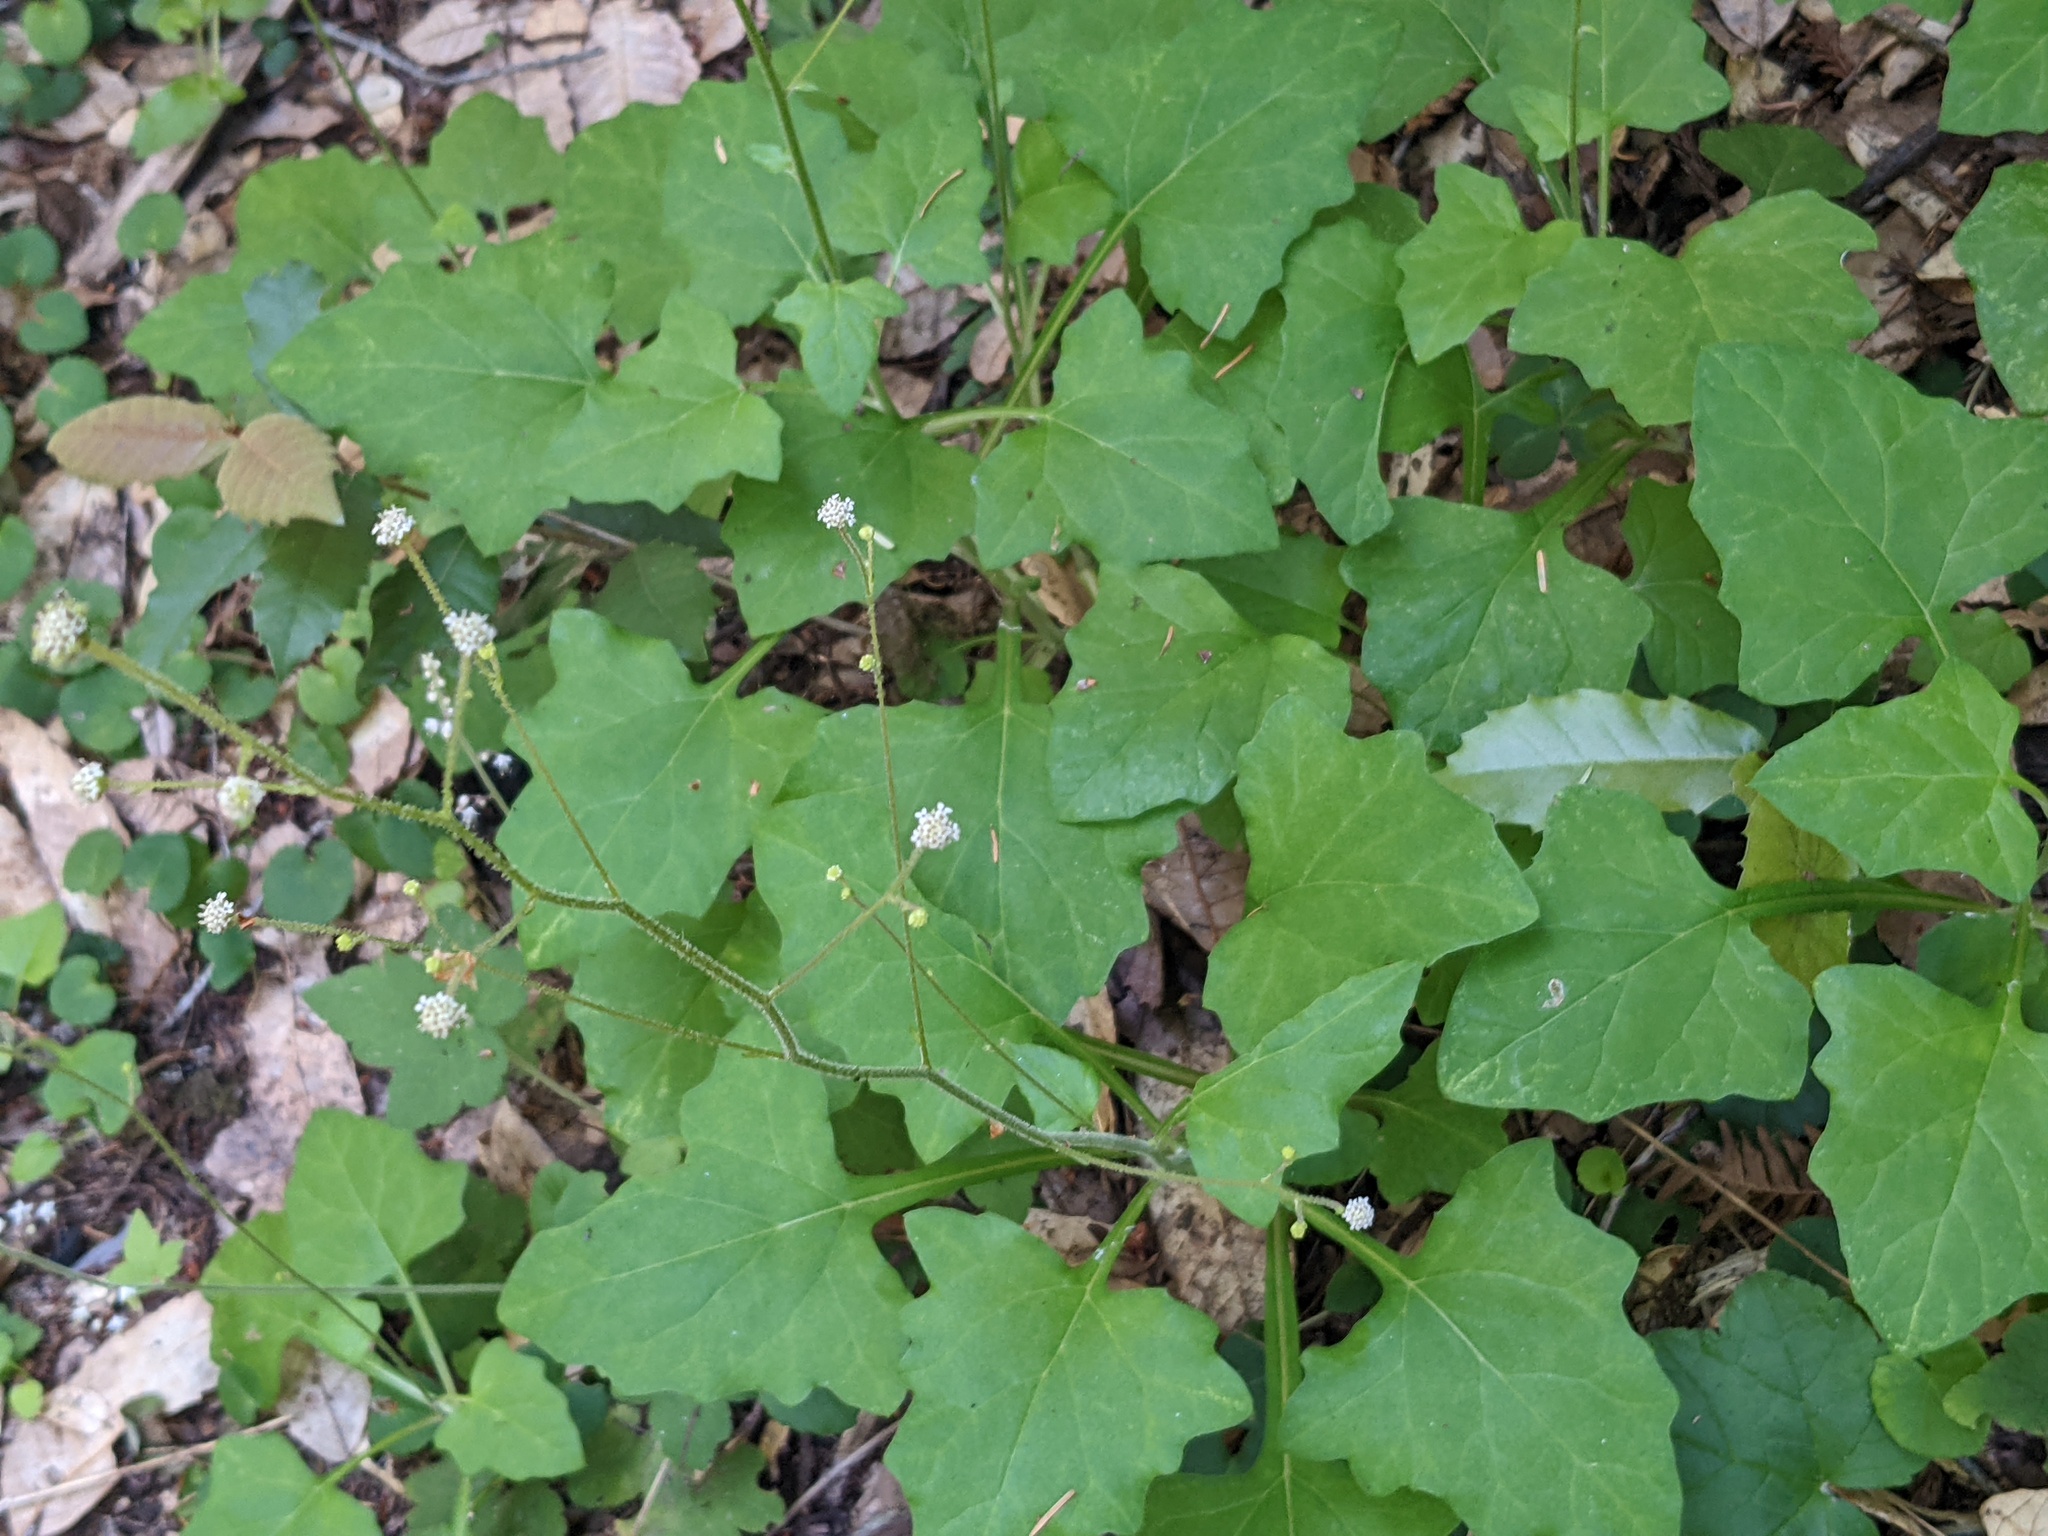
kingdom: Plantae
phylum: Tracheophyta
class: Magnoliopsida
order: Asterales
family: Asteraceae
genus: Adenocaulon
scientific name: Adenocaulon bicolor
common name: Trailplant
